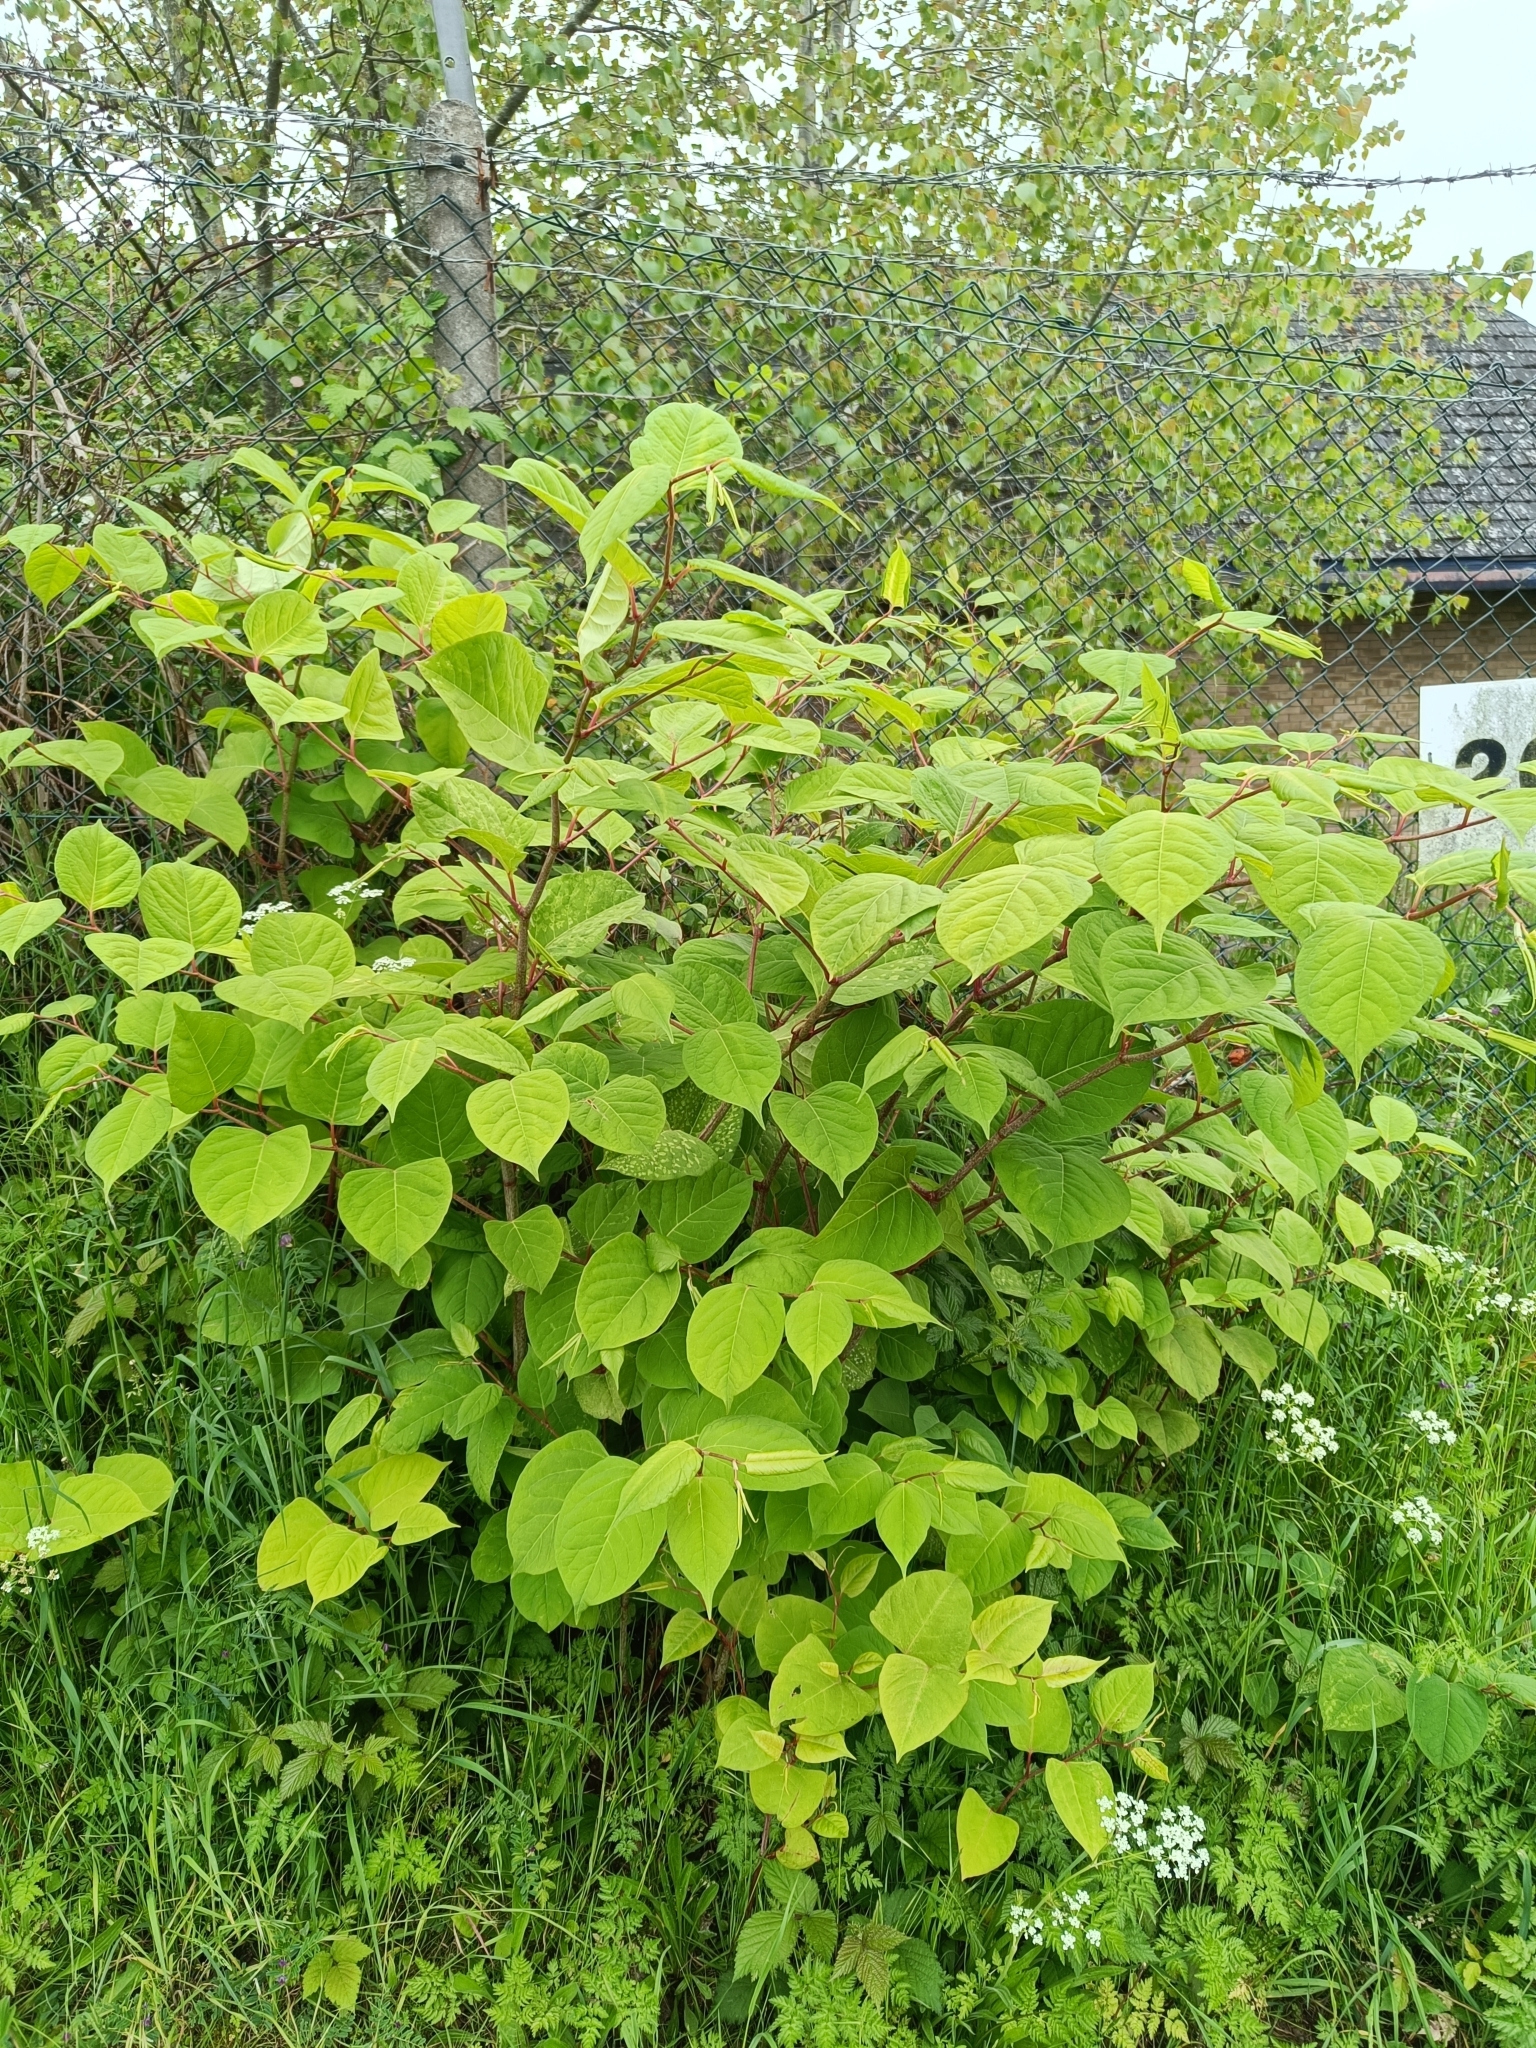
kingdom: Plantae
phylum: Tracheophyta
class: Magnoliopsida
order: Caryophyllales
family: Polygonaceae
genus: Reynoutria
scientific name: Reynoutria japonica
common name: Japanese knotweed
